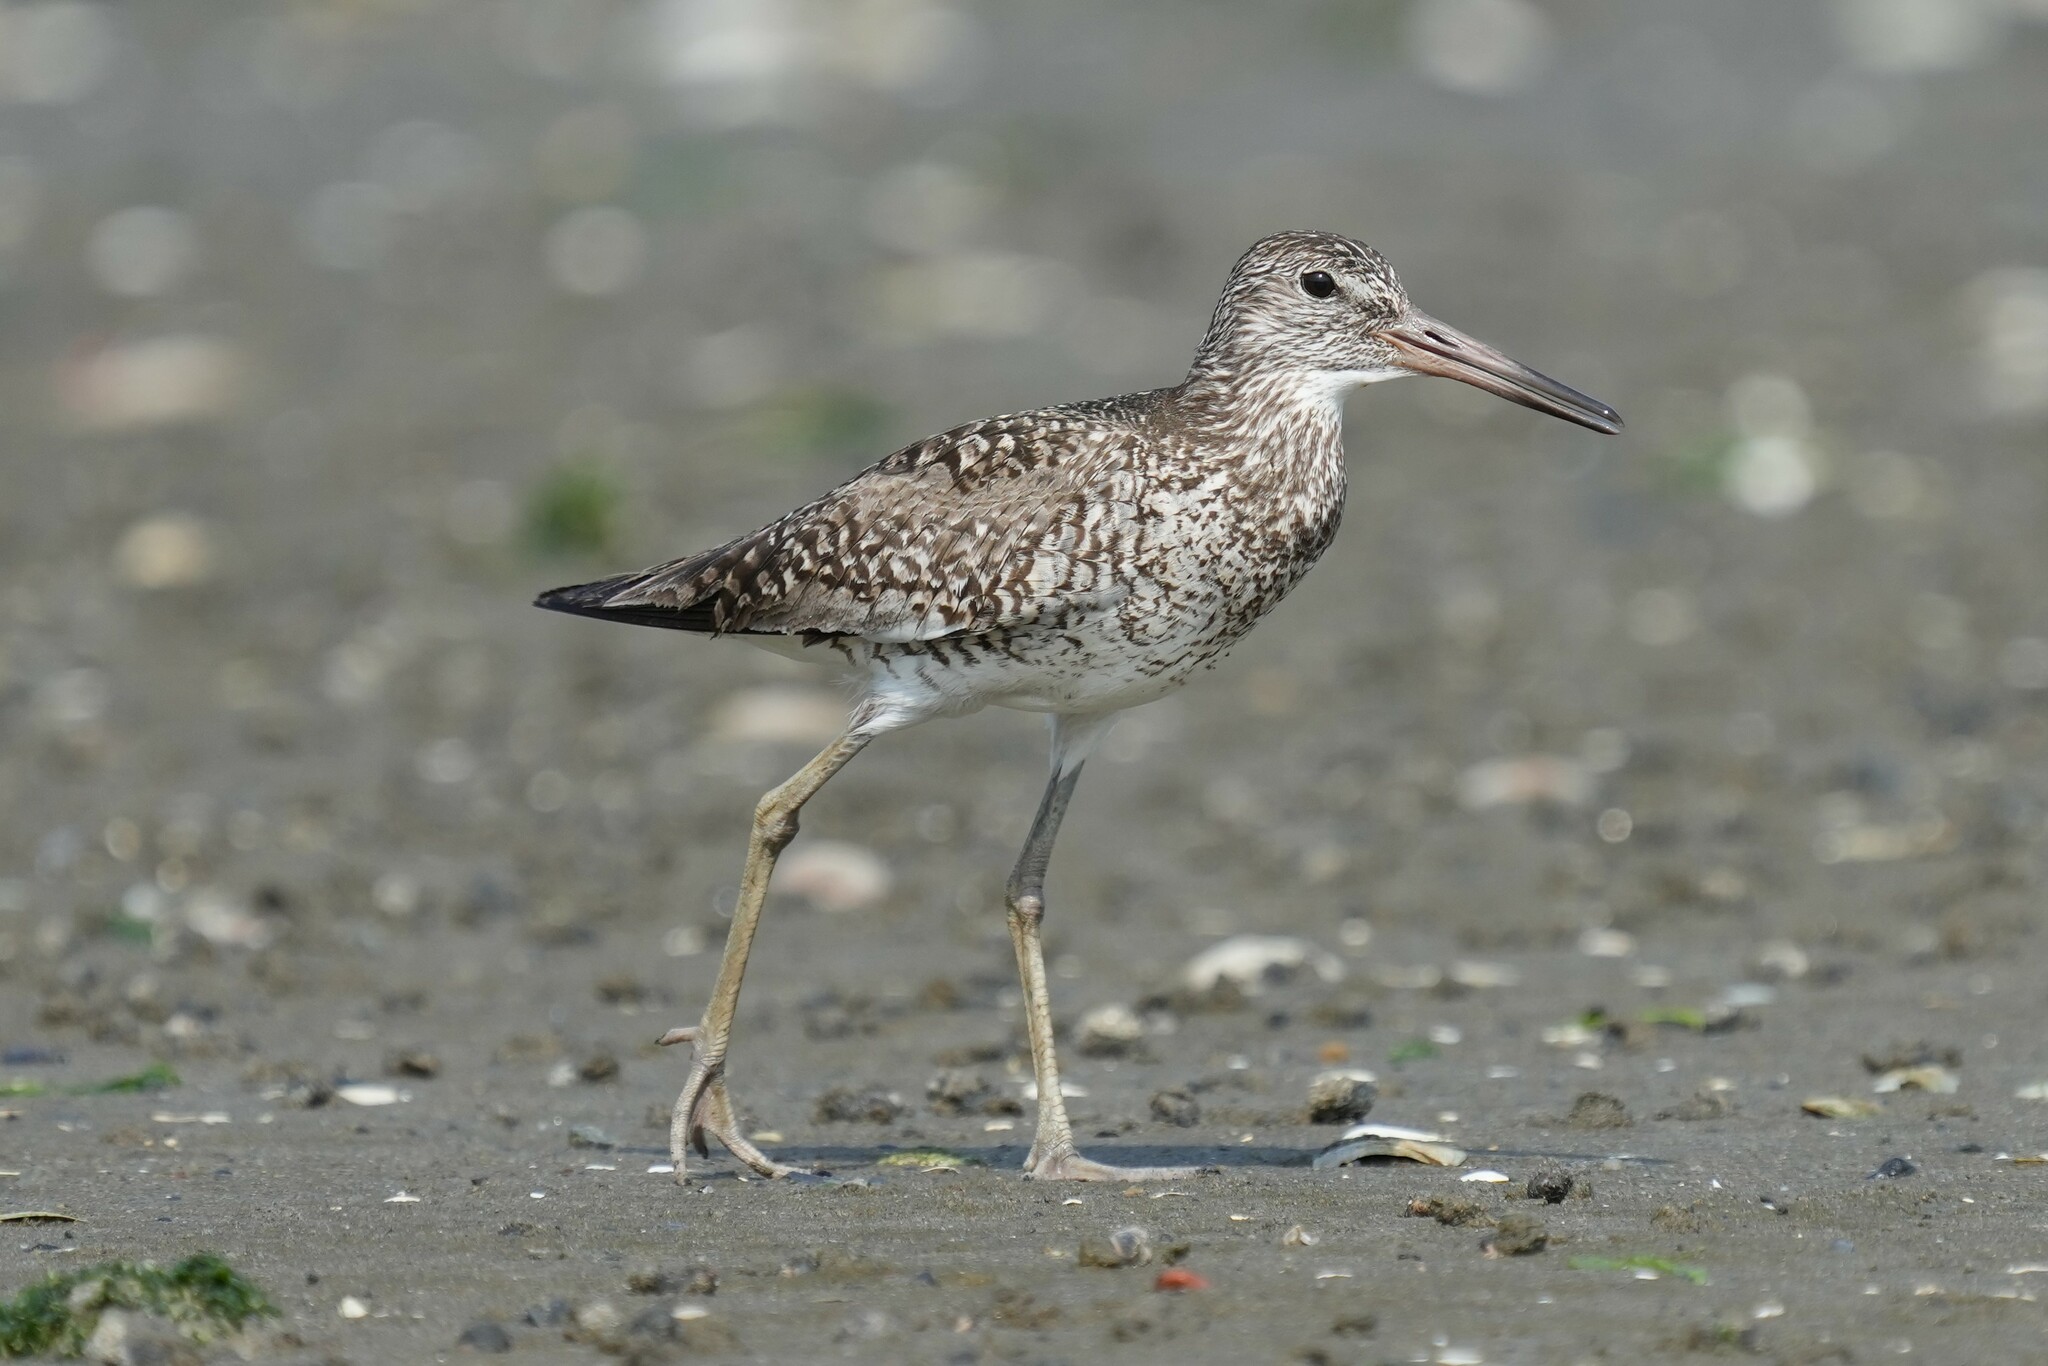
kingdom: Animalia
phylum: Chordata
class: Aves
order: Charadriiformes
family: Scolopacidae
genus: Tringa
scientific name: Tringa semipalmata
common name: Willet
